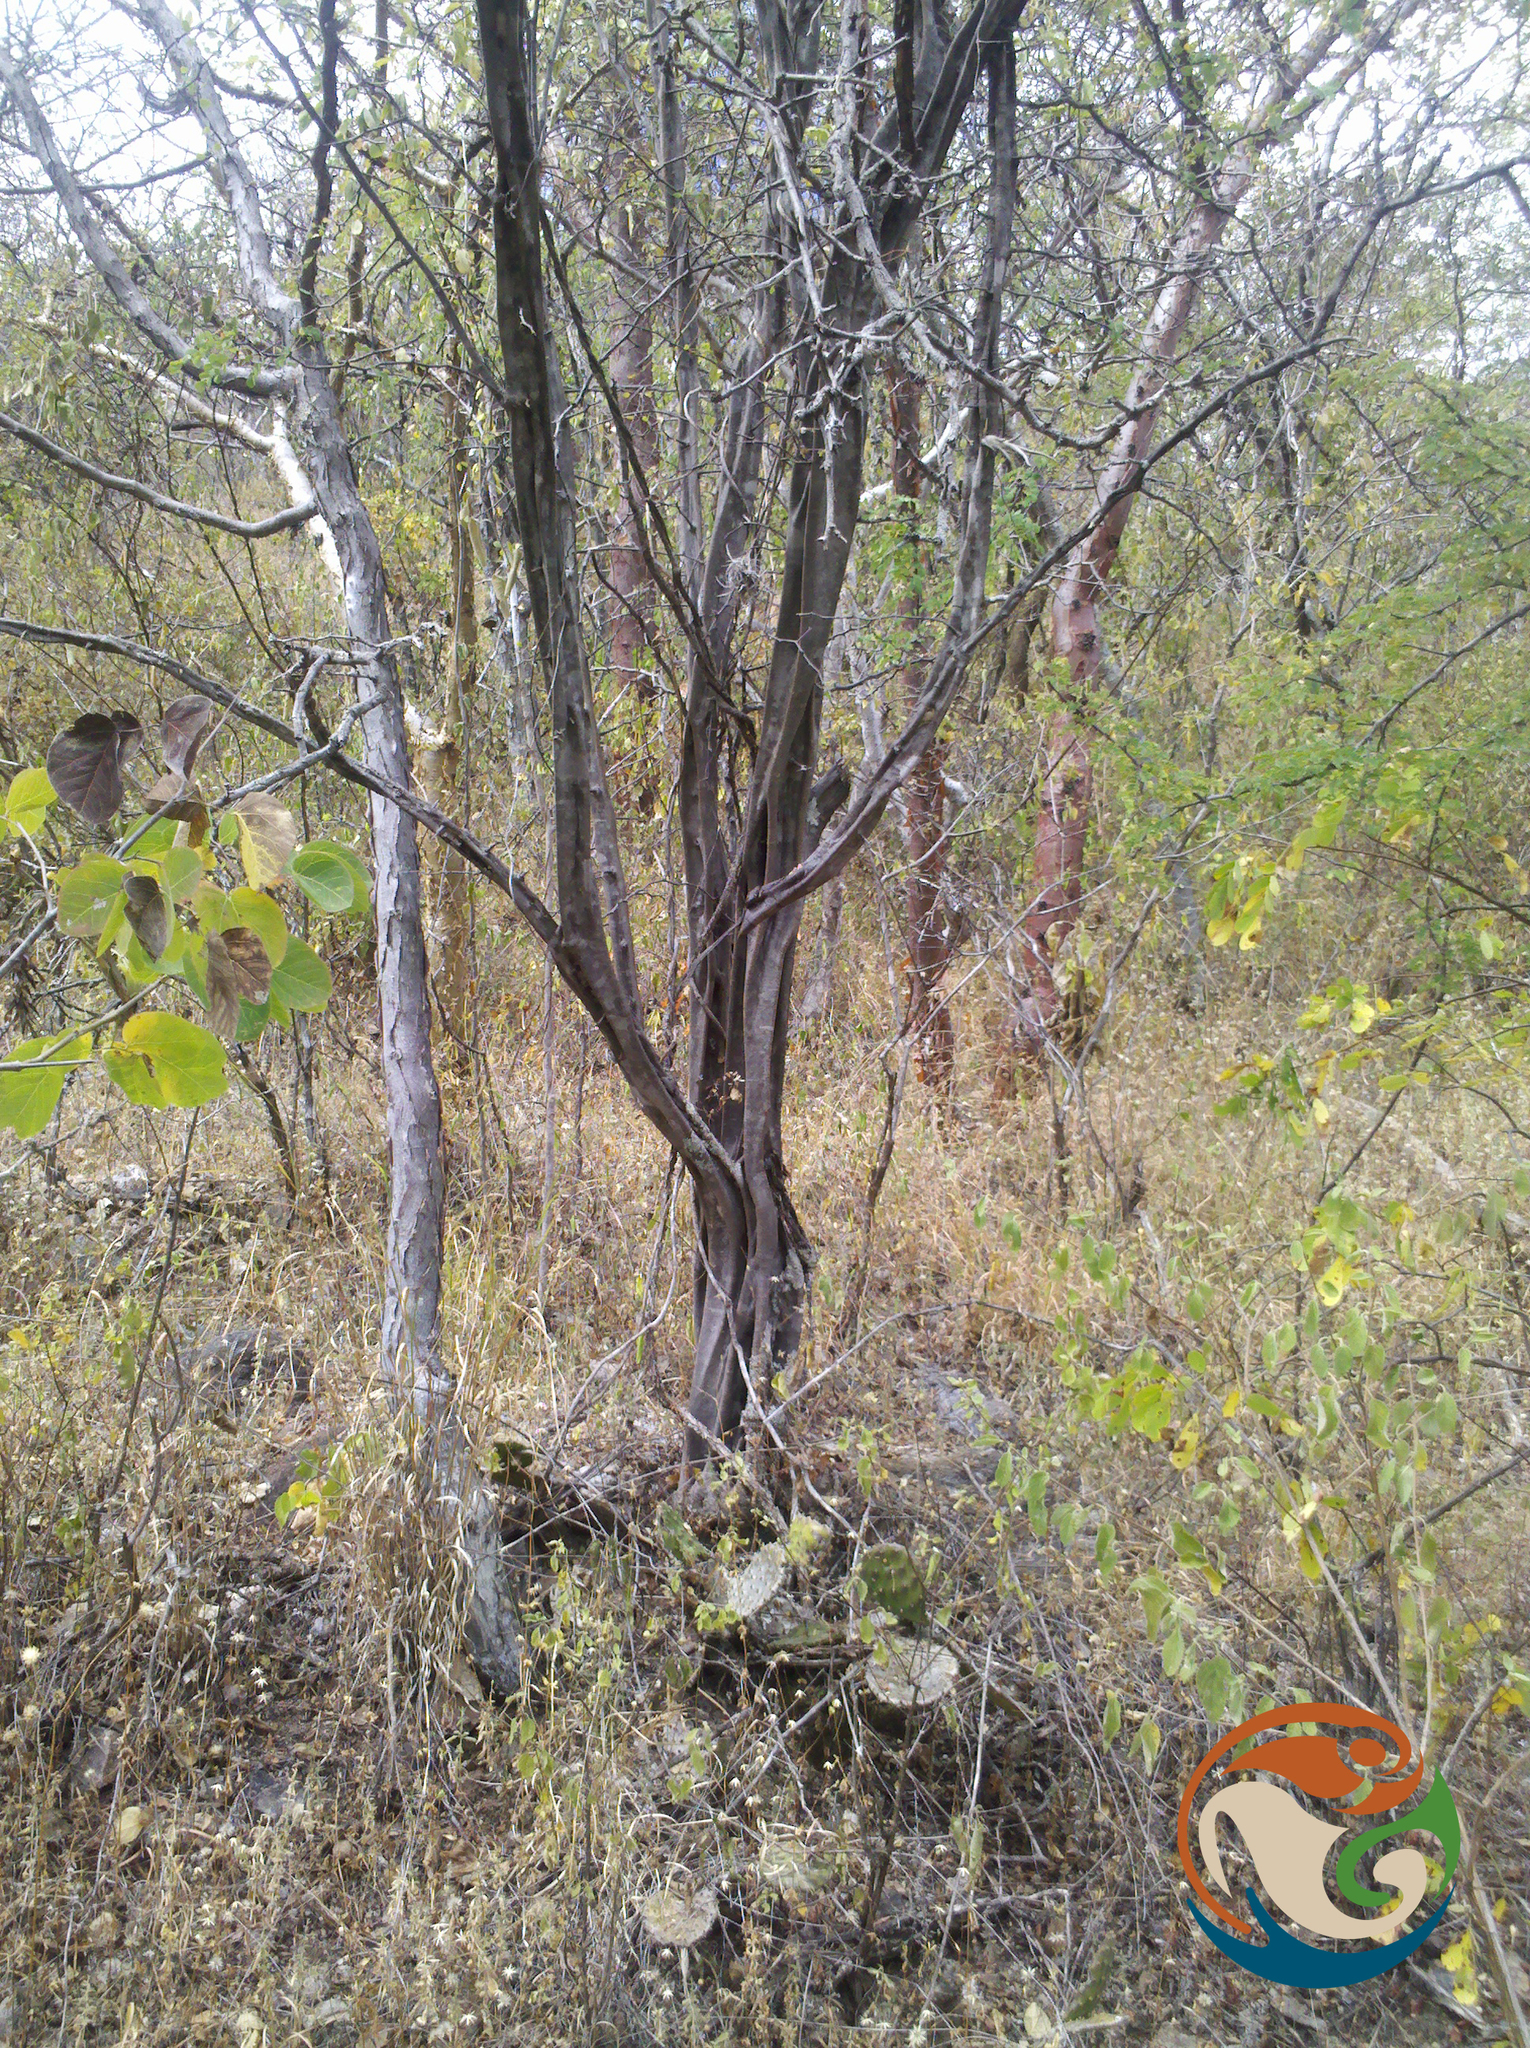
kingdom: Plantae
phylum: Tracheophyta
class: Magnoliopsida
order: Fabales
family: Fabaceae
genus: Haematoxylum
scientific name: Haematoxylum brasiletto
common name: Peachwood
